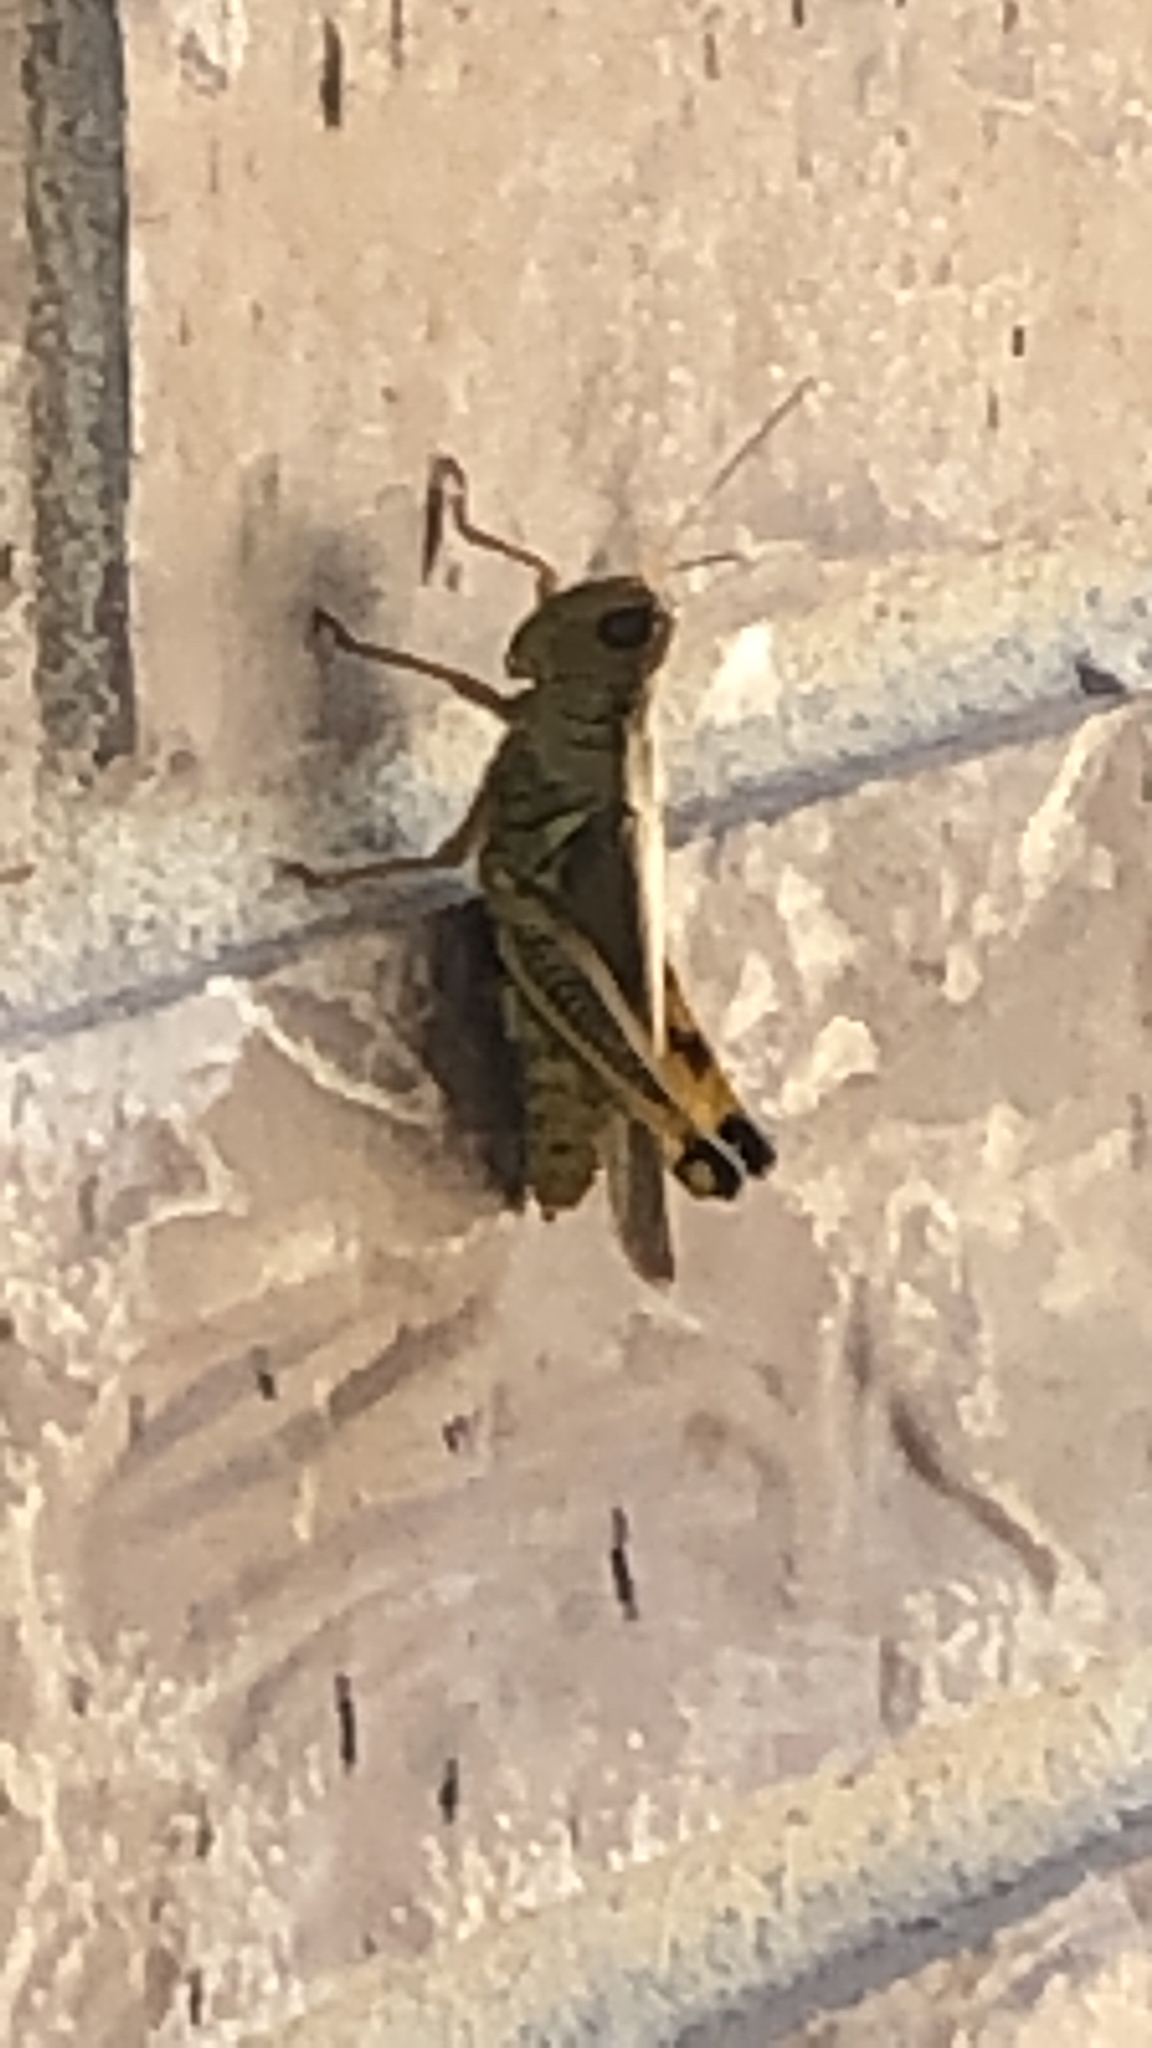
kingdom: Animalia
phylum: Arthropoda
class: Insecta
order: Orthoptera
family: Acrididae
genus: Melanoplus
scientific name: Melanoplus differentialis
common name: Differential grasshopper
